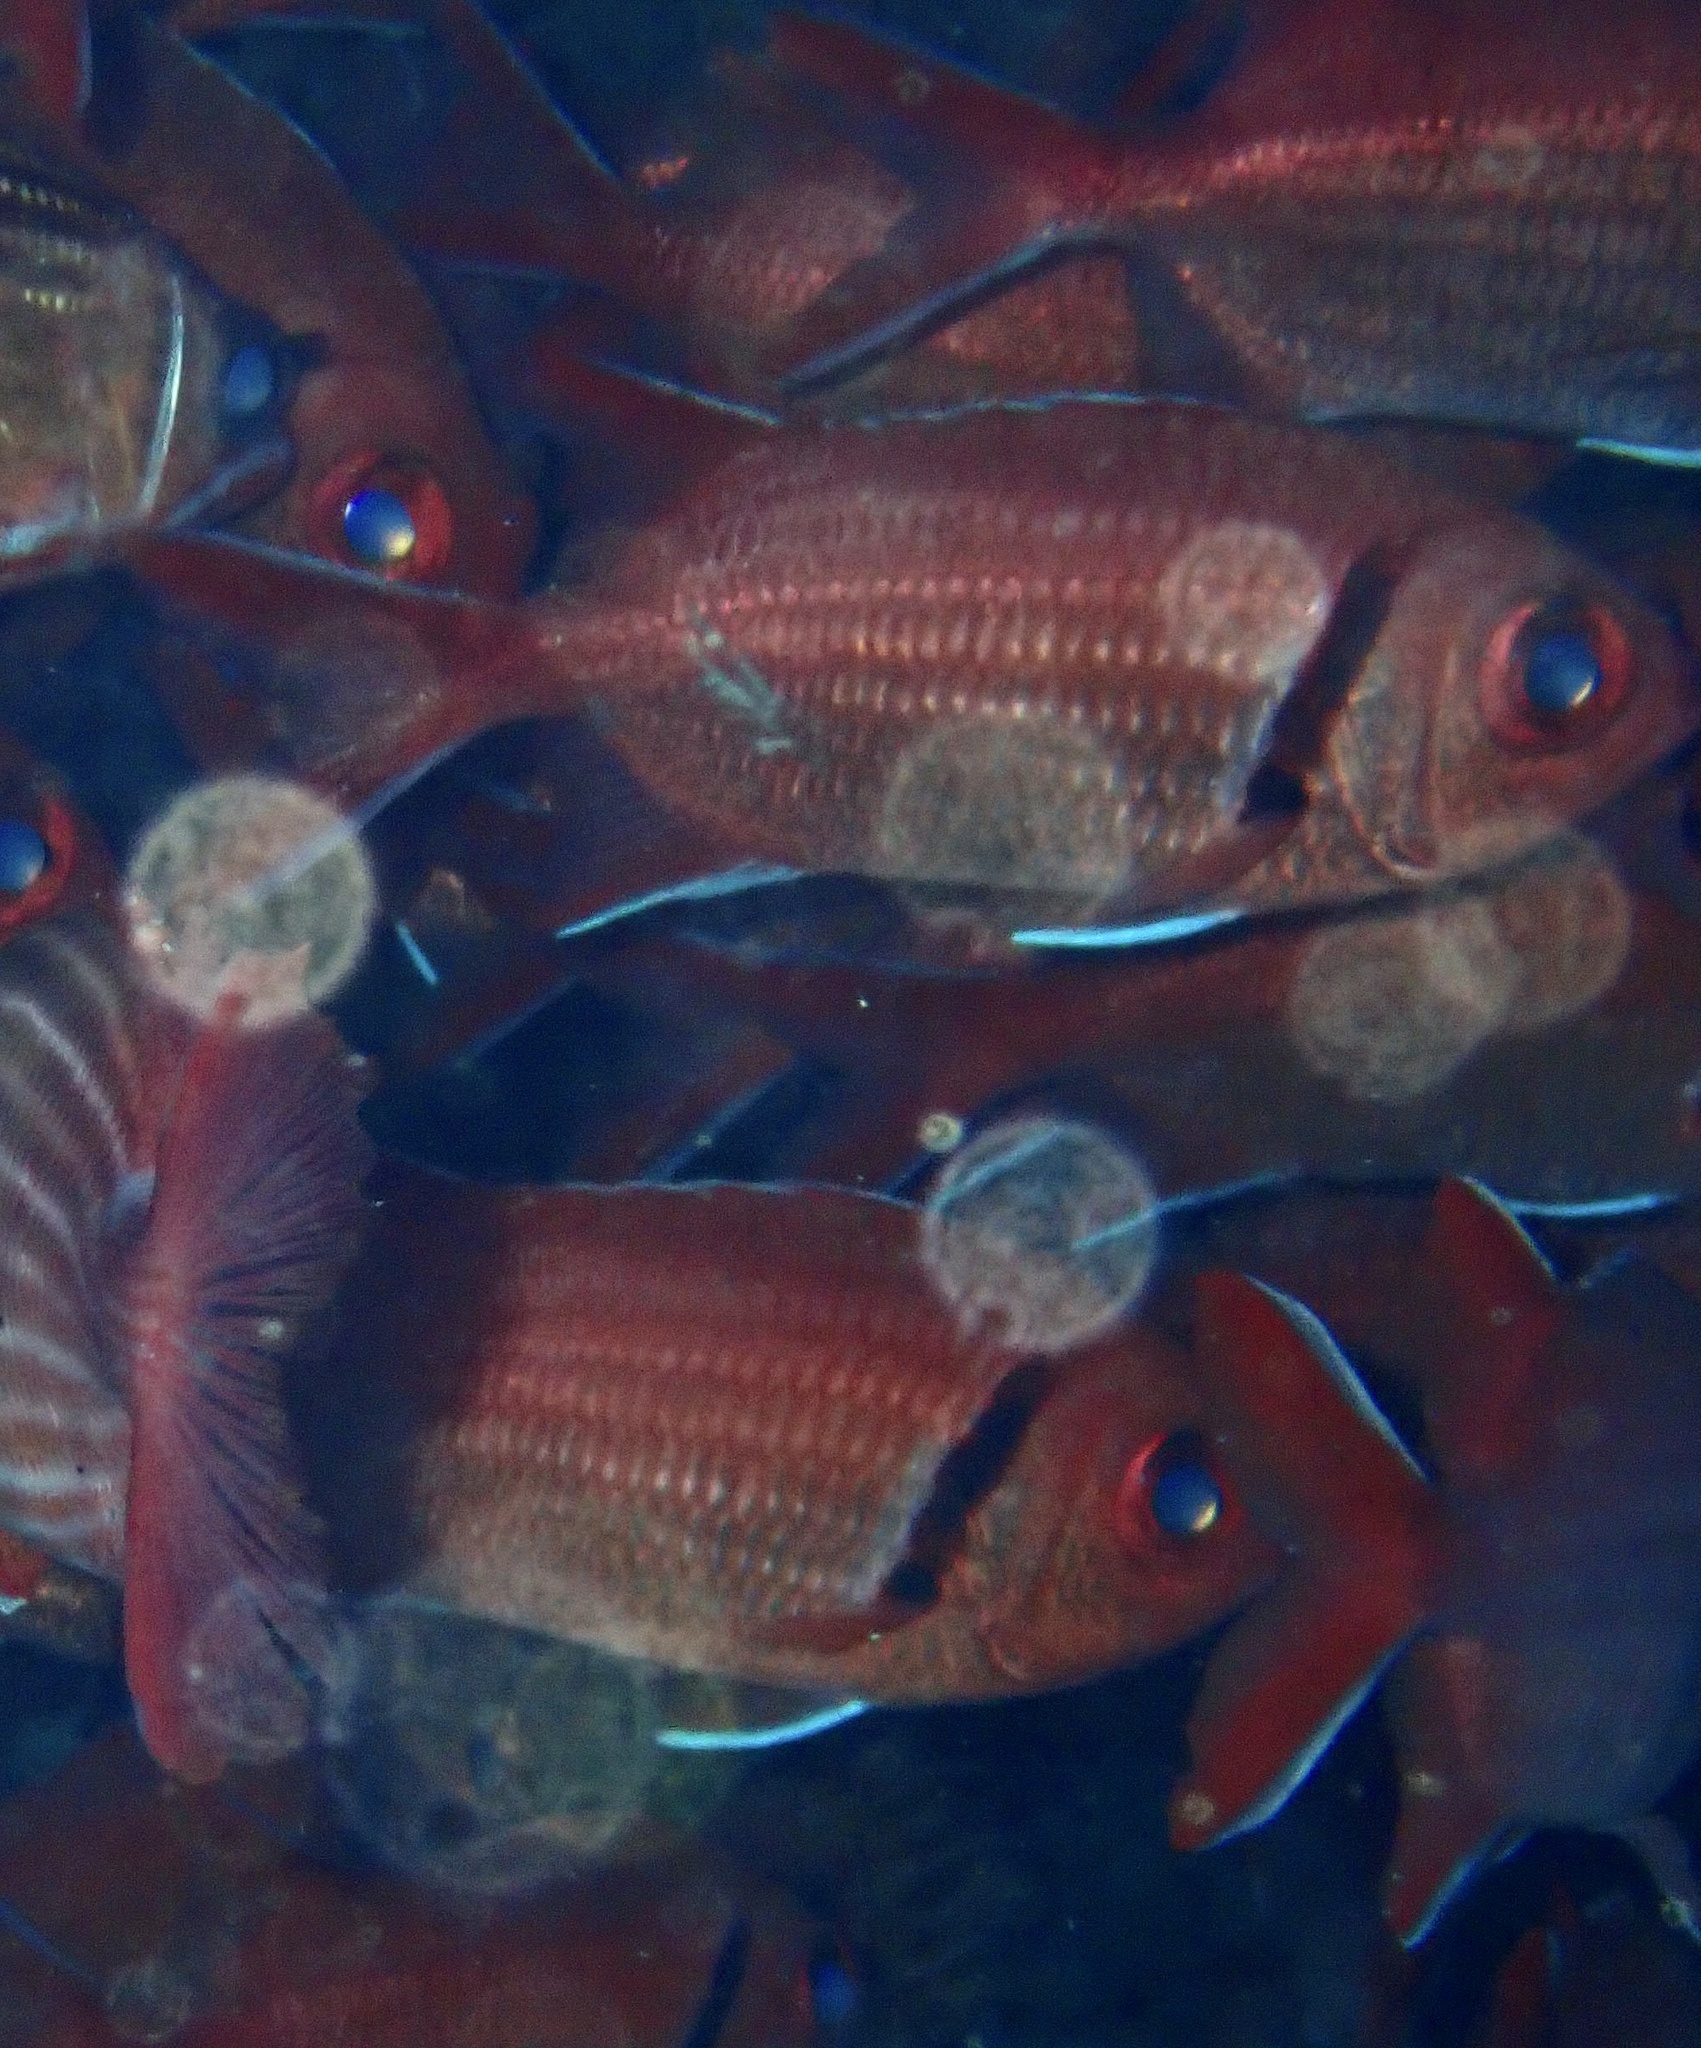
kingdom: Animalia
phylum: Chordata
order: Beryciformes
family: Holocentridae
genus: Myripristis
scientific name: Myripristis jacobus
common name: Blackbar soldierfish
